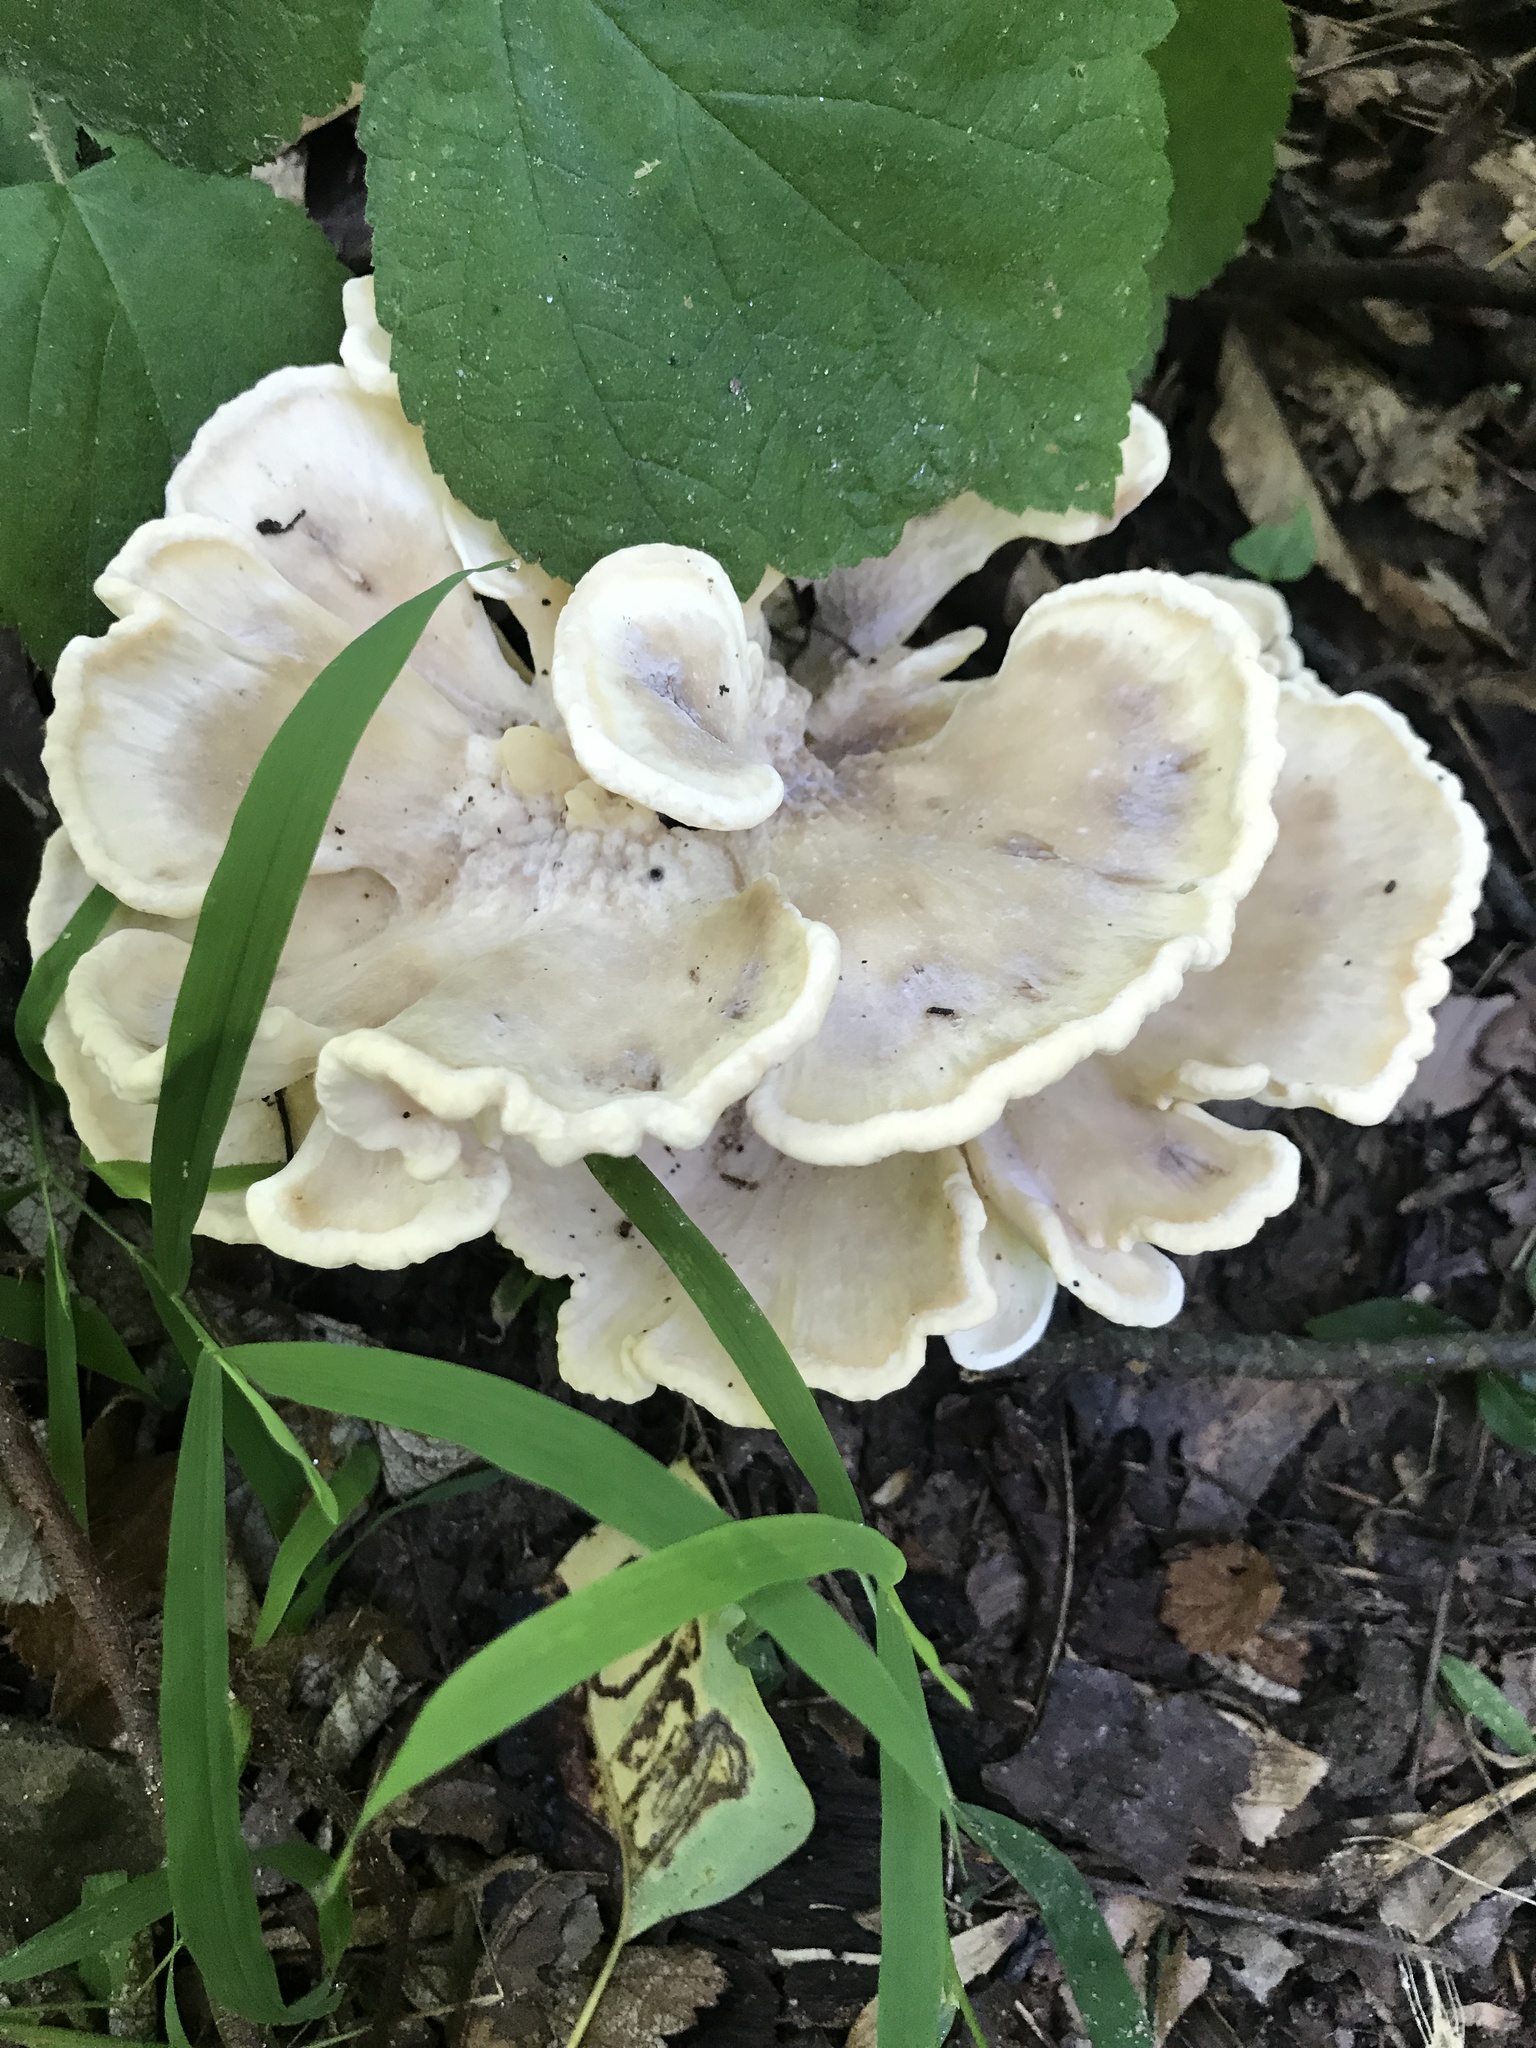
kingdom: Fungi
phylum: Basidiomycota
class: Agaricomycetes
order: Polyporales
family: Meripilaceae
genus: Meripilus
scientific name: Meripilus sumstinei
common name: Black-staining polypore
